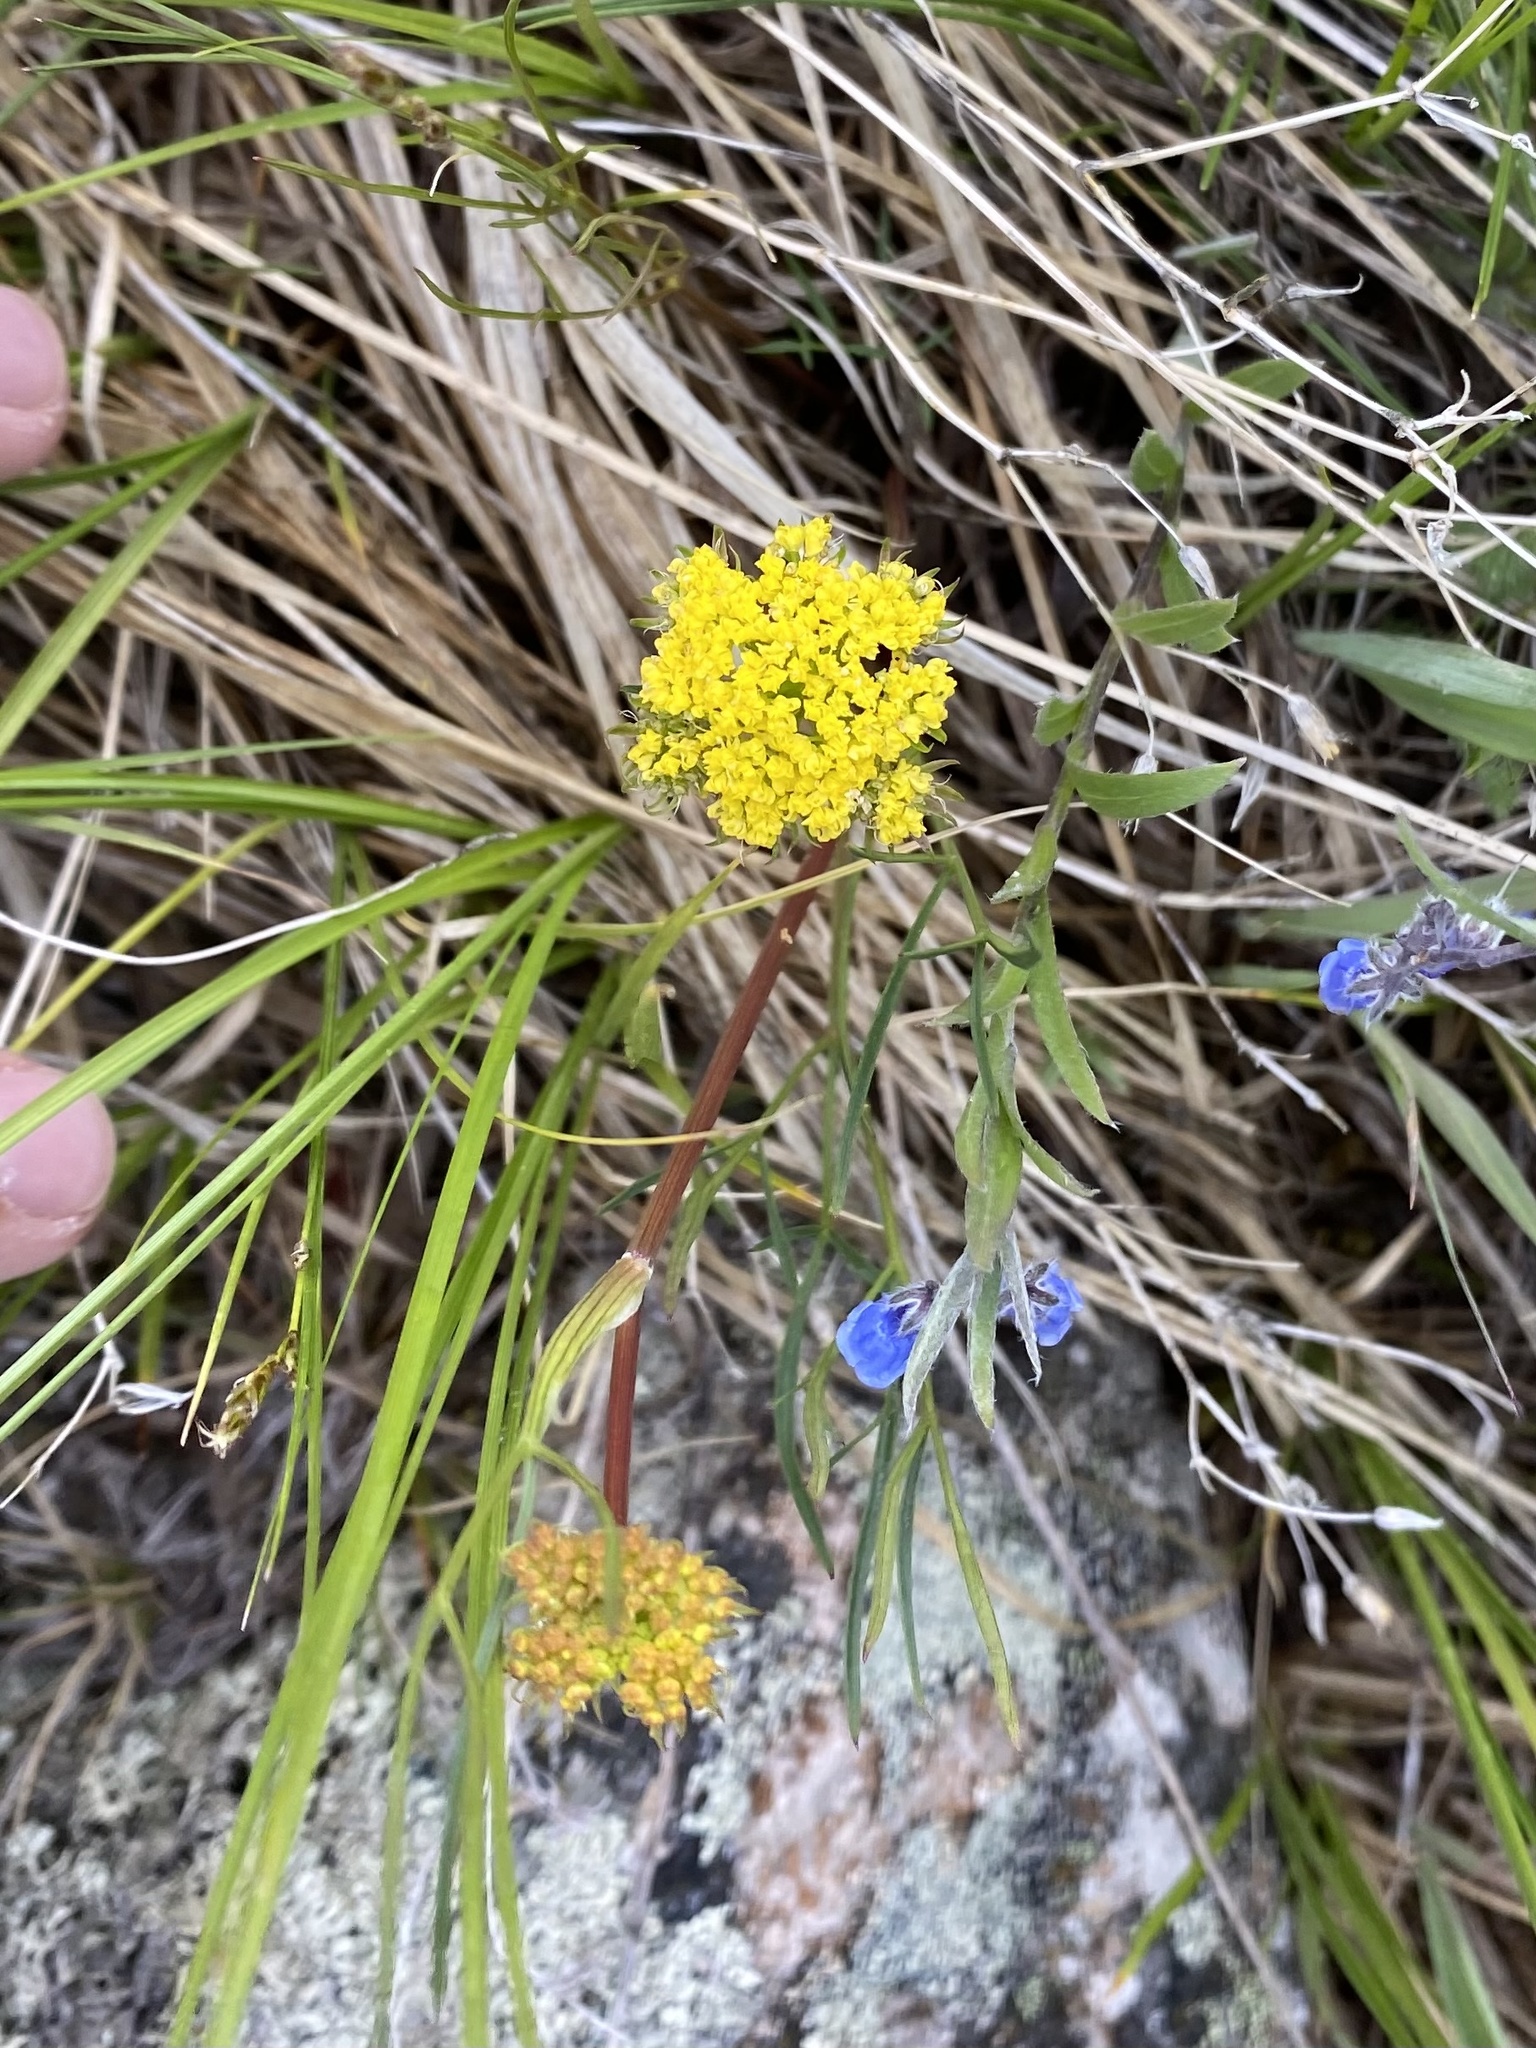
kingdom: Plantae
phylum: Tracheophyta
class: Magnoliopsida
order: Apiales
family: Apiaceae
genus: Cymopterus
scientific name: Cymopterus lemmonii
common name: Lemmon's spring-parsley
